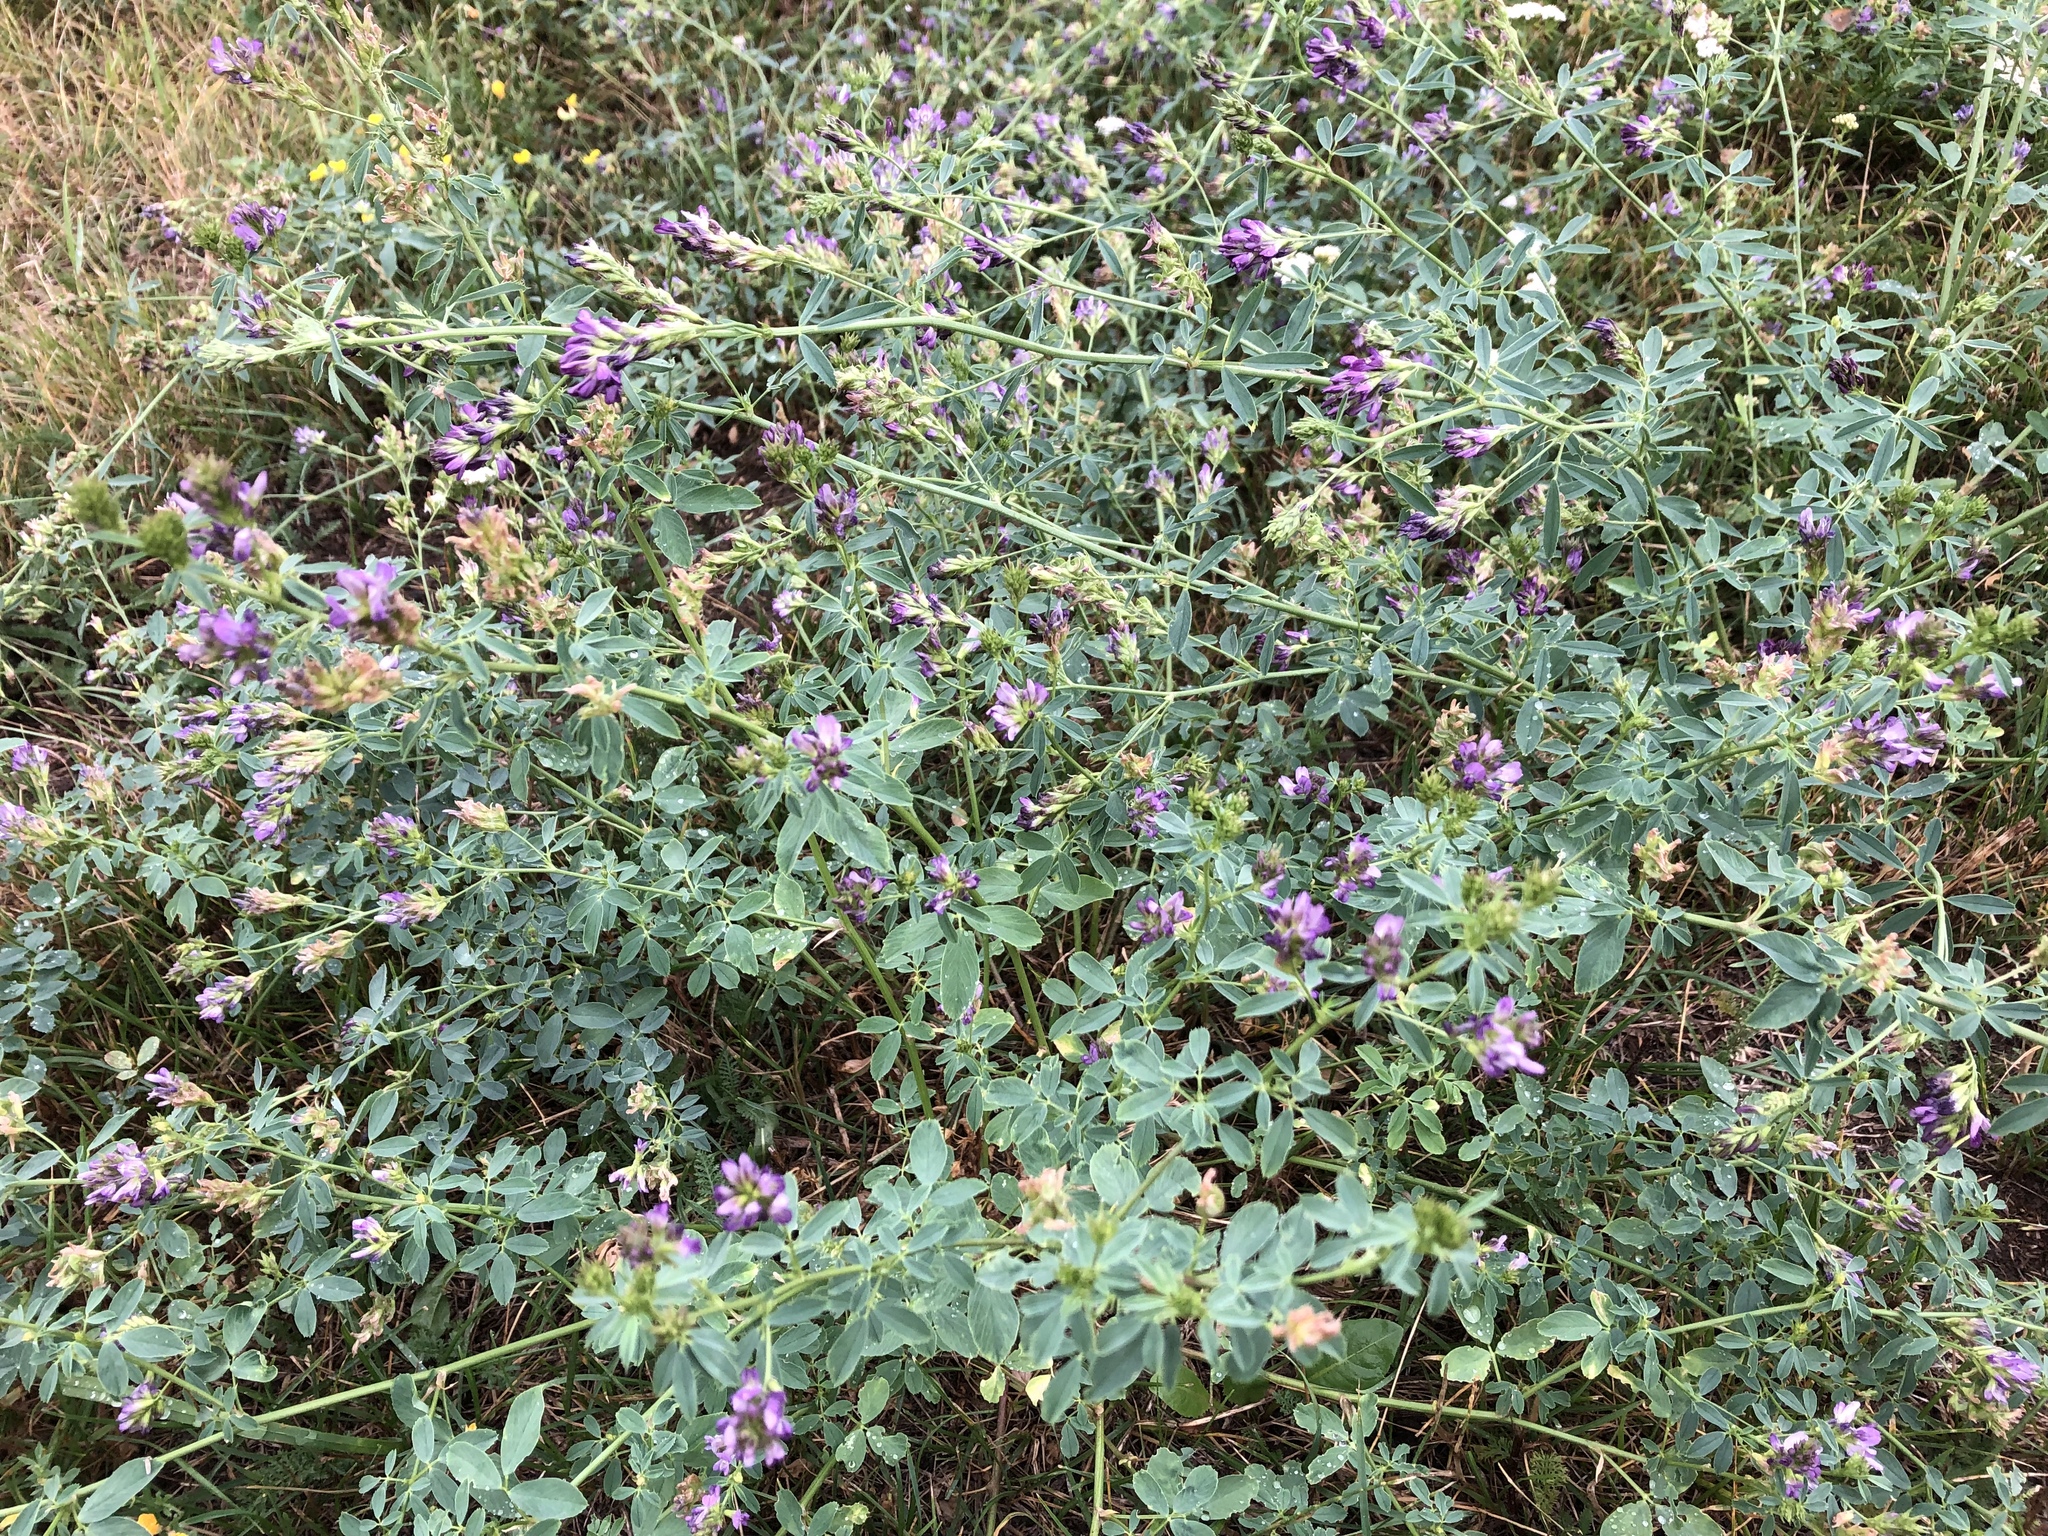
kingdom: Plantae
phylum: Tracheophyta
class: Magnoliopsida
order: Fabales
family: Fabaceae
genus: Medicago
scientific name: Medicago sativa
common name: Alfalfa
